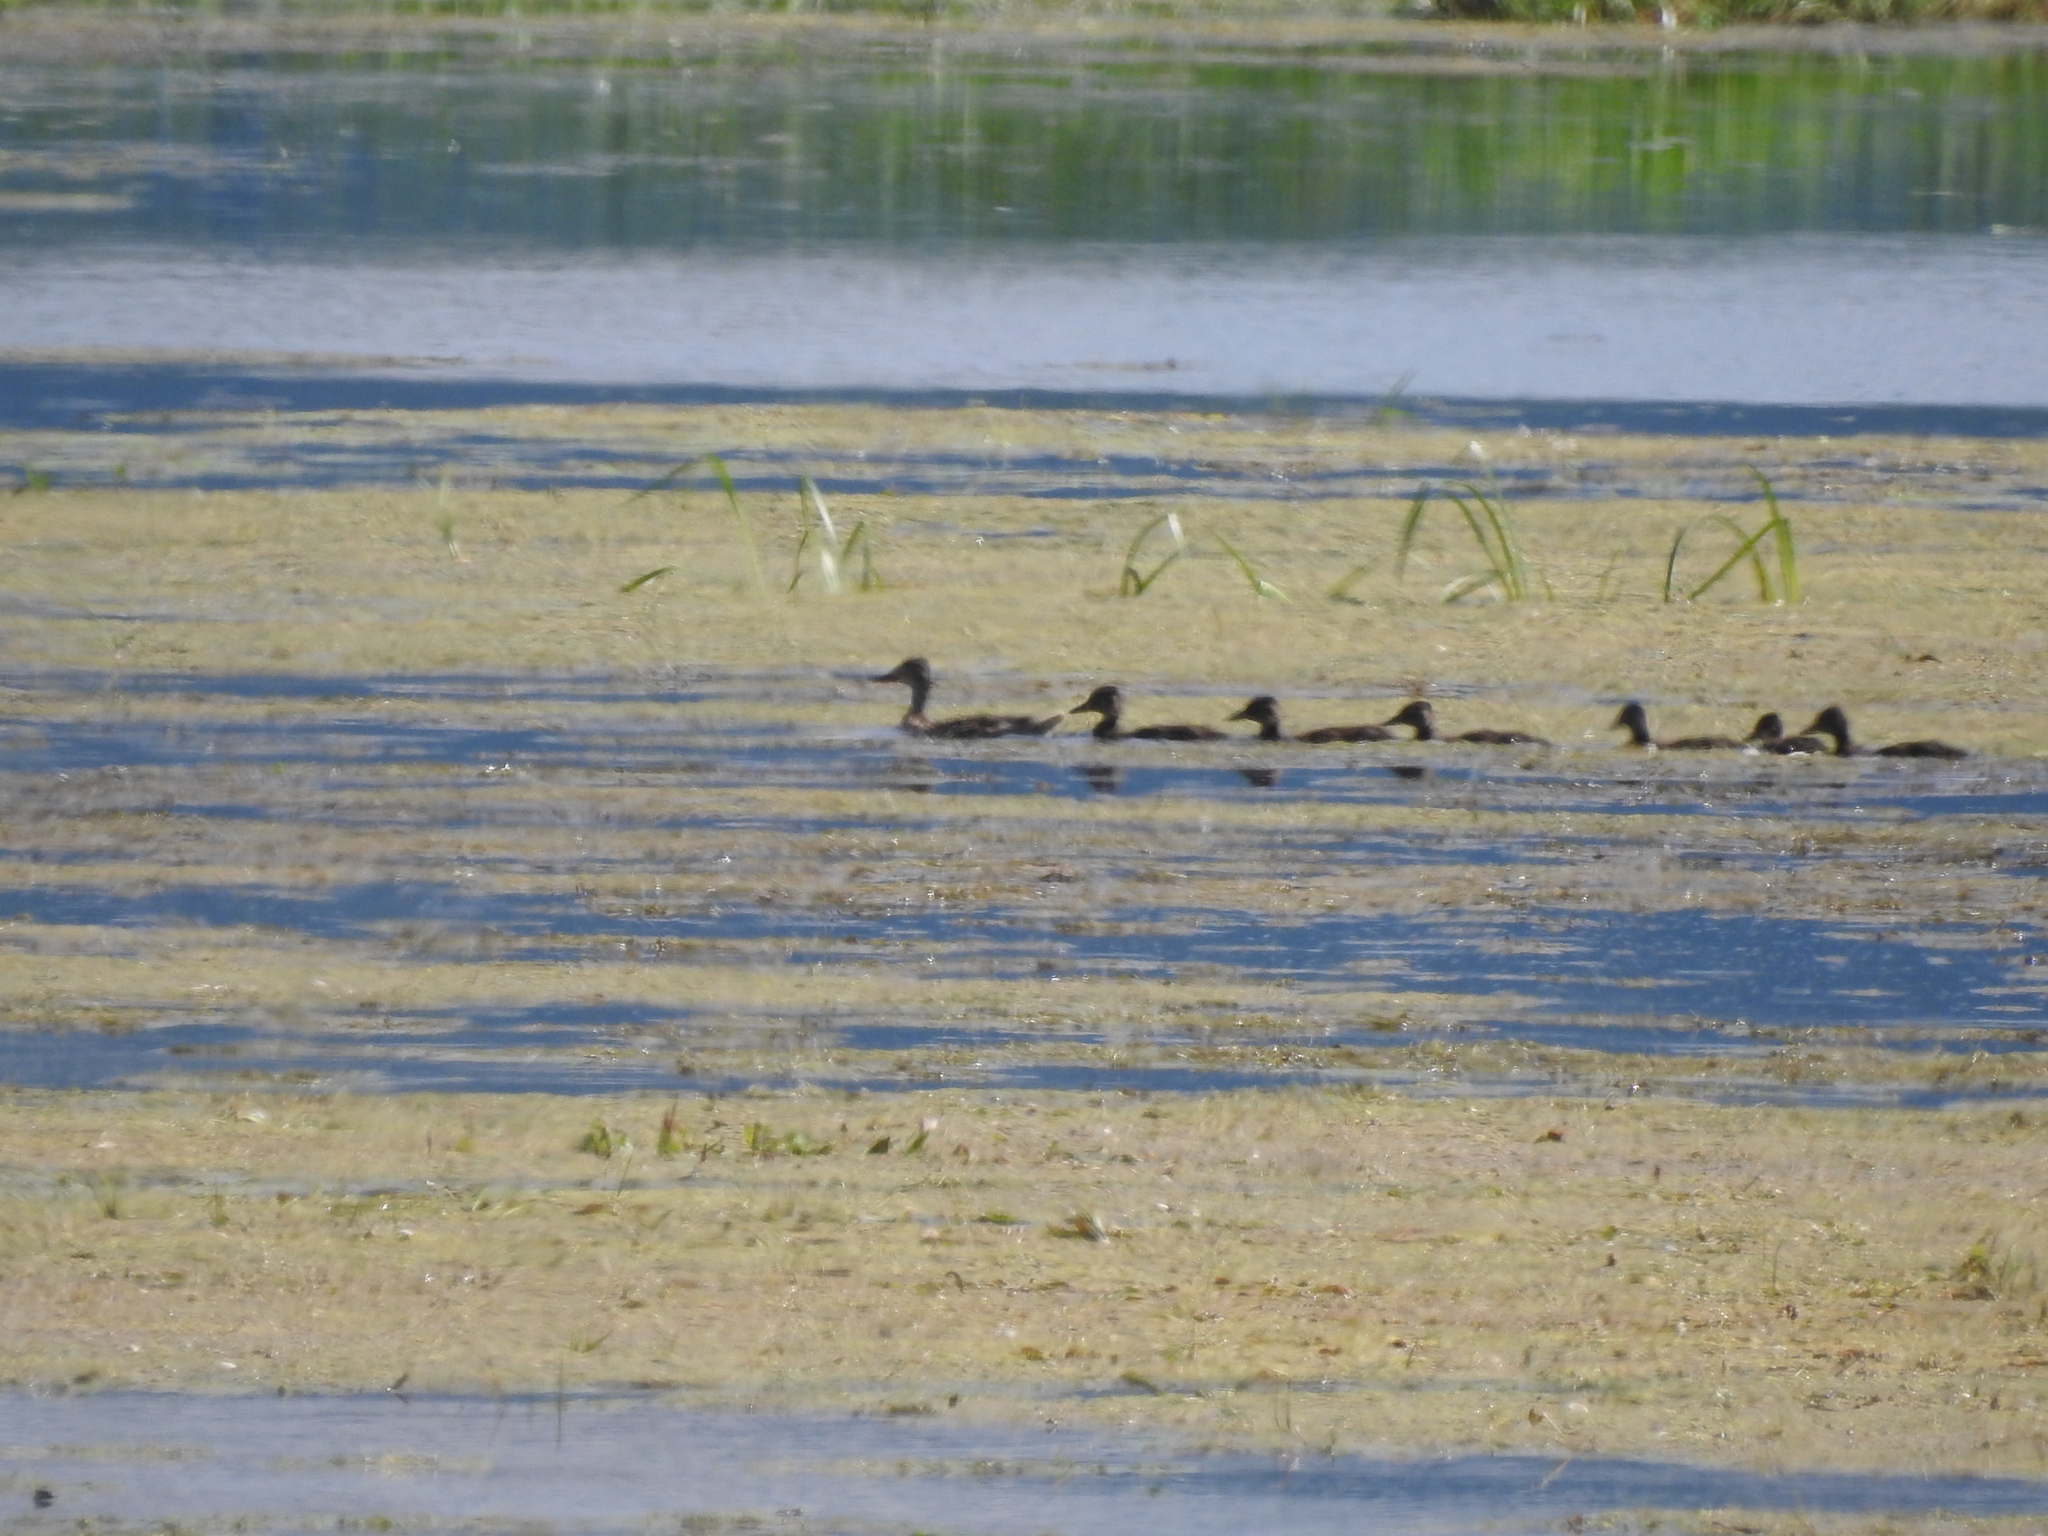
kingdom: Animalia
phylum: Chordata
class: Aves
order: Anseriformes
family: Anatidae
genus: Anas
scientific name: Anas platyrhynchos
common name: Mallard
